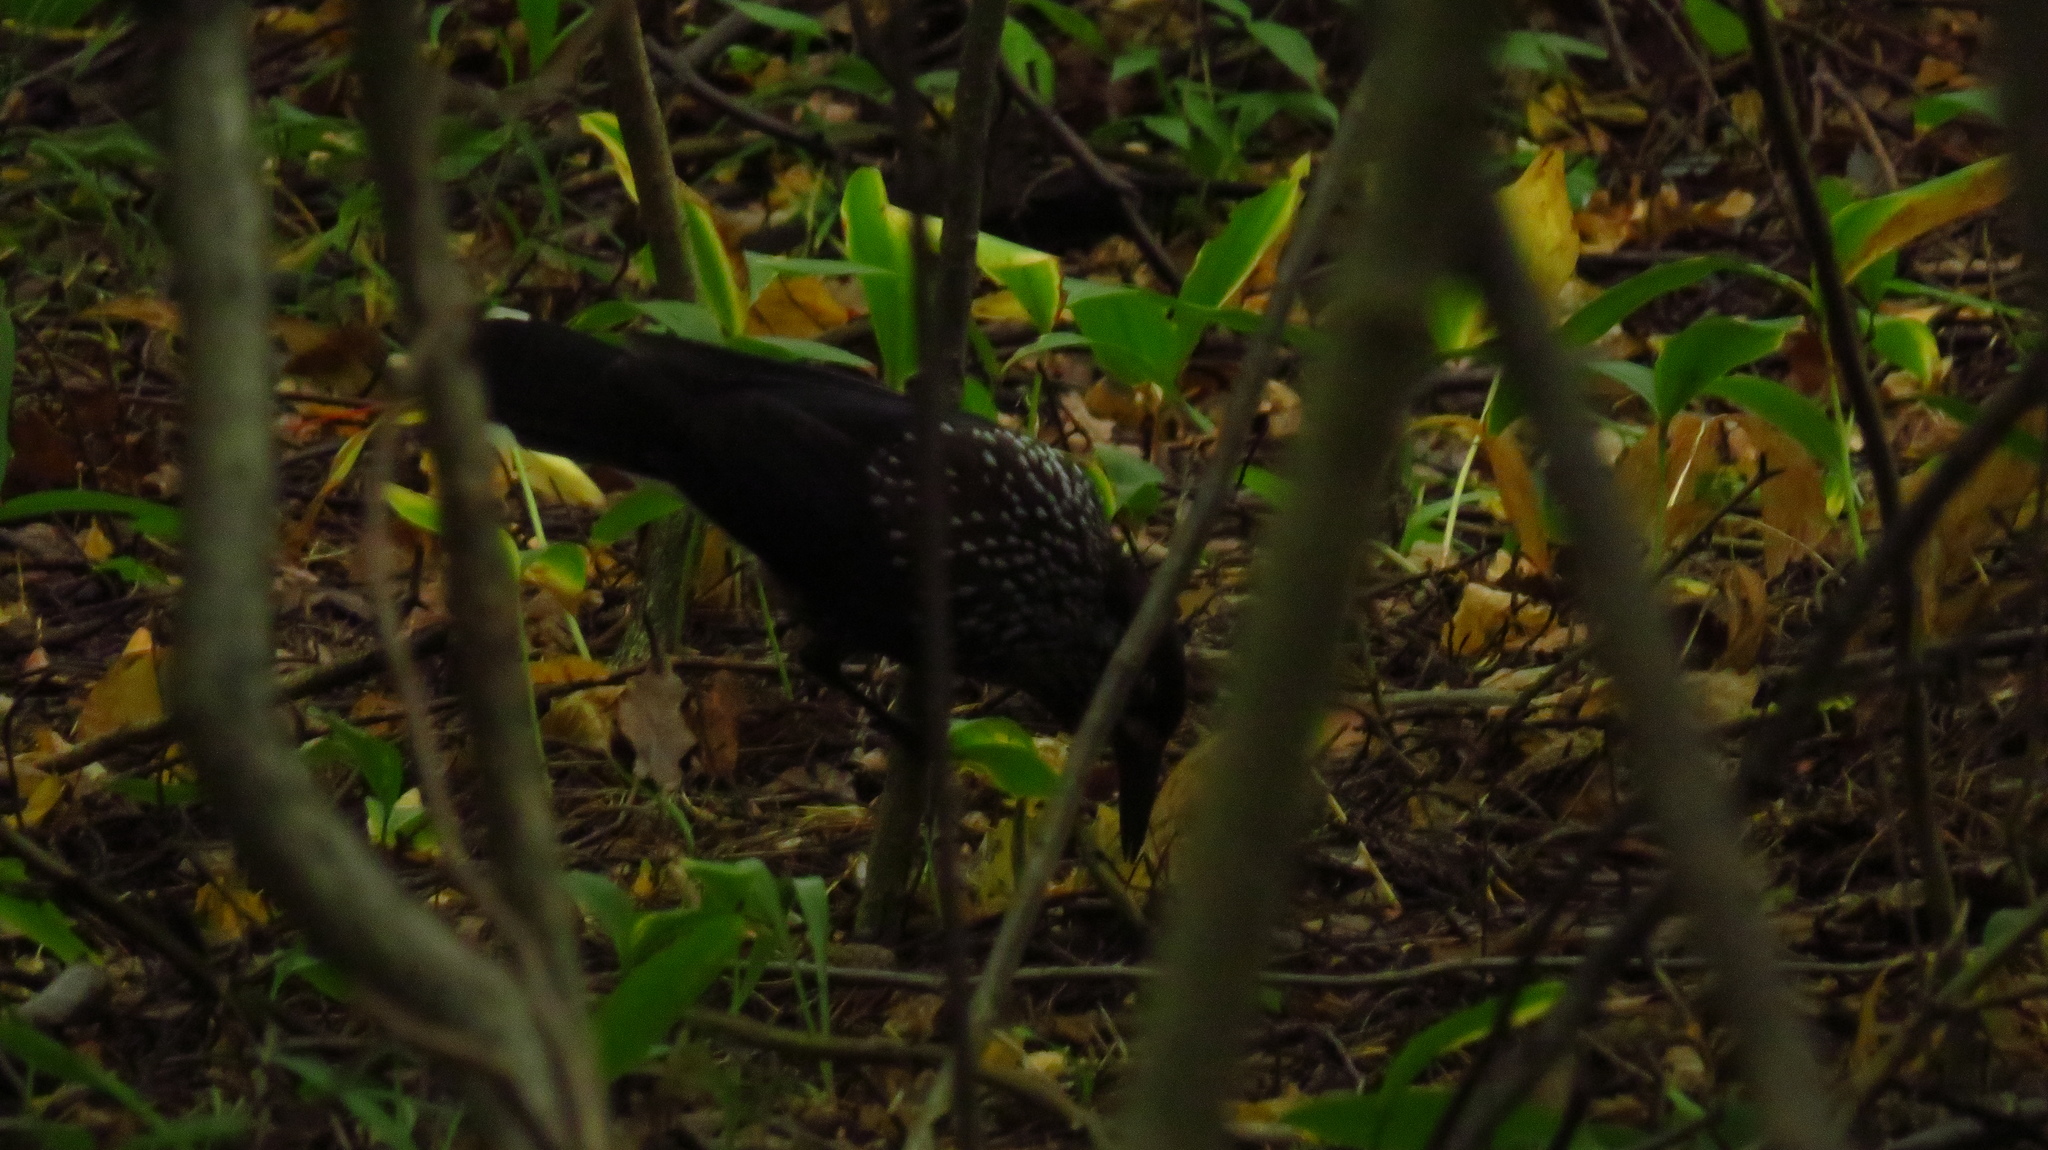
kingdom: Animalia
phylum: Chordata
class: Aves
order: Passeriformes
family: Corvidae
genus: Nucifraga
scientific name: Nucifraga caryocatactes
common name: Spotted nutcracker
